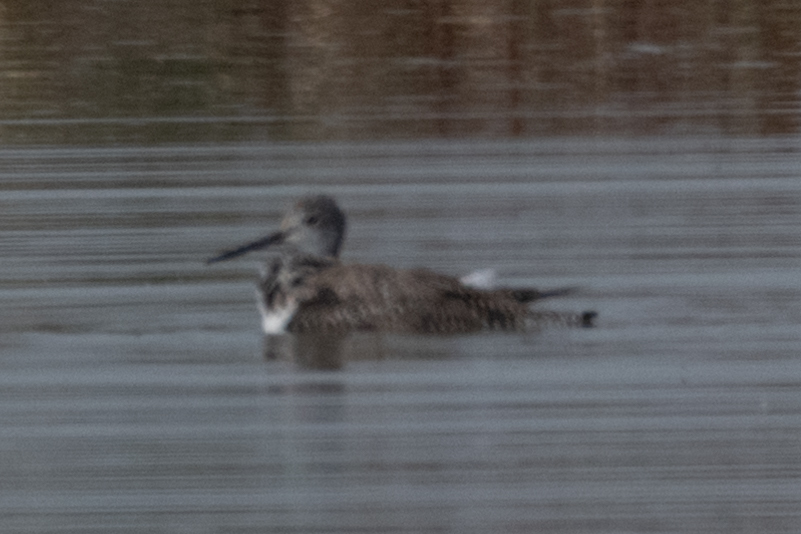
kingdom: Animalia
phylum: Chordata
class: Aves
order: Charadriiformes
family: Scolopacidae
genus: Tringa
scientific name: Tringa melanoleuca
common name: Greater yellowlegs
